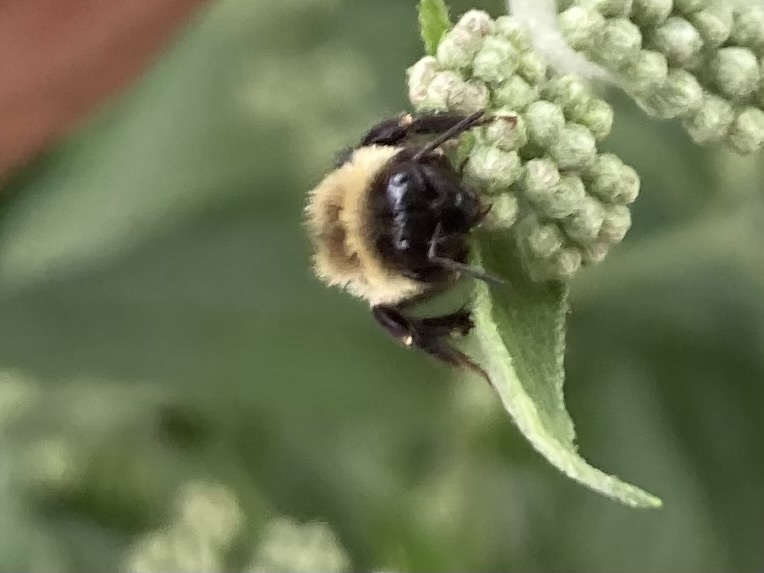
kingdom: Animalia
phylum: Arthropoda
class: Insecta
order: Hymenoptera
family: Apidae
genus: Bombus
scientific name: Bombus impatiens
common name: Common eastern bumble bee
